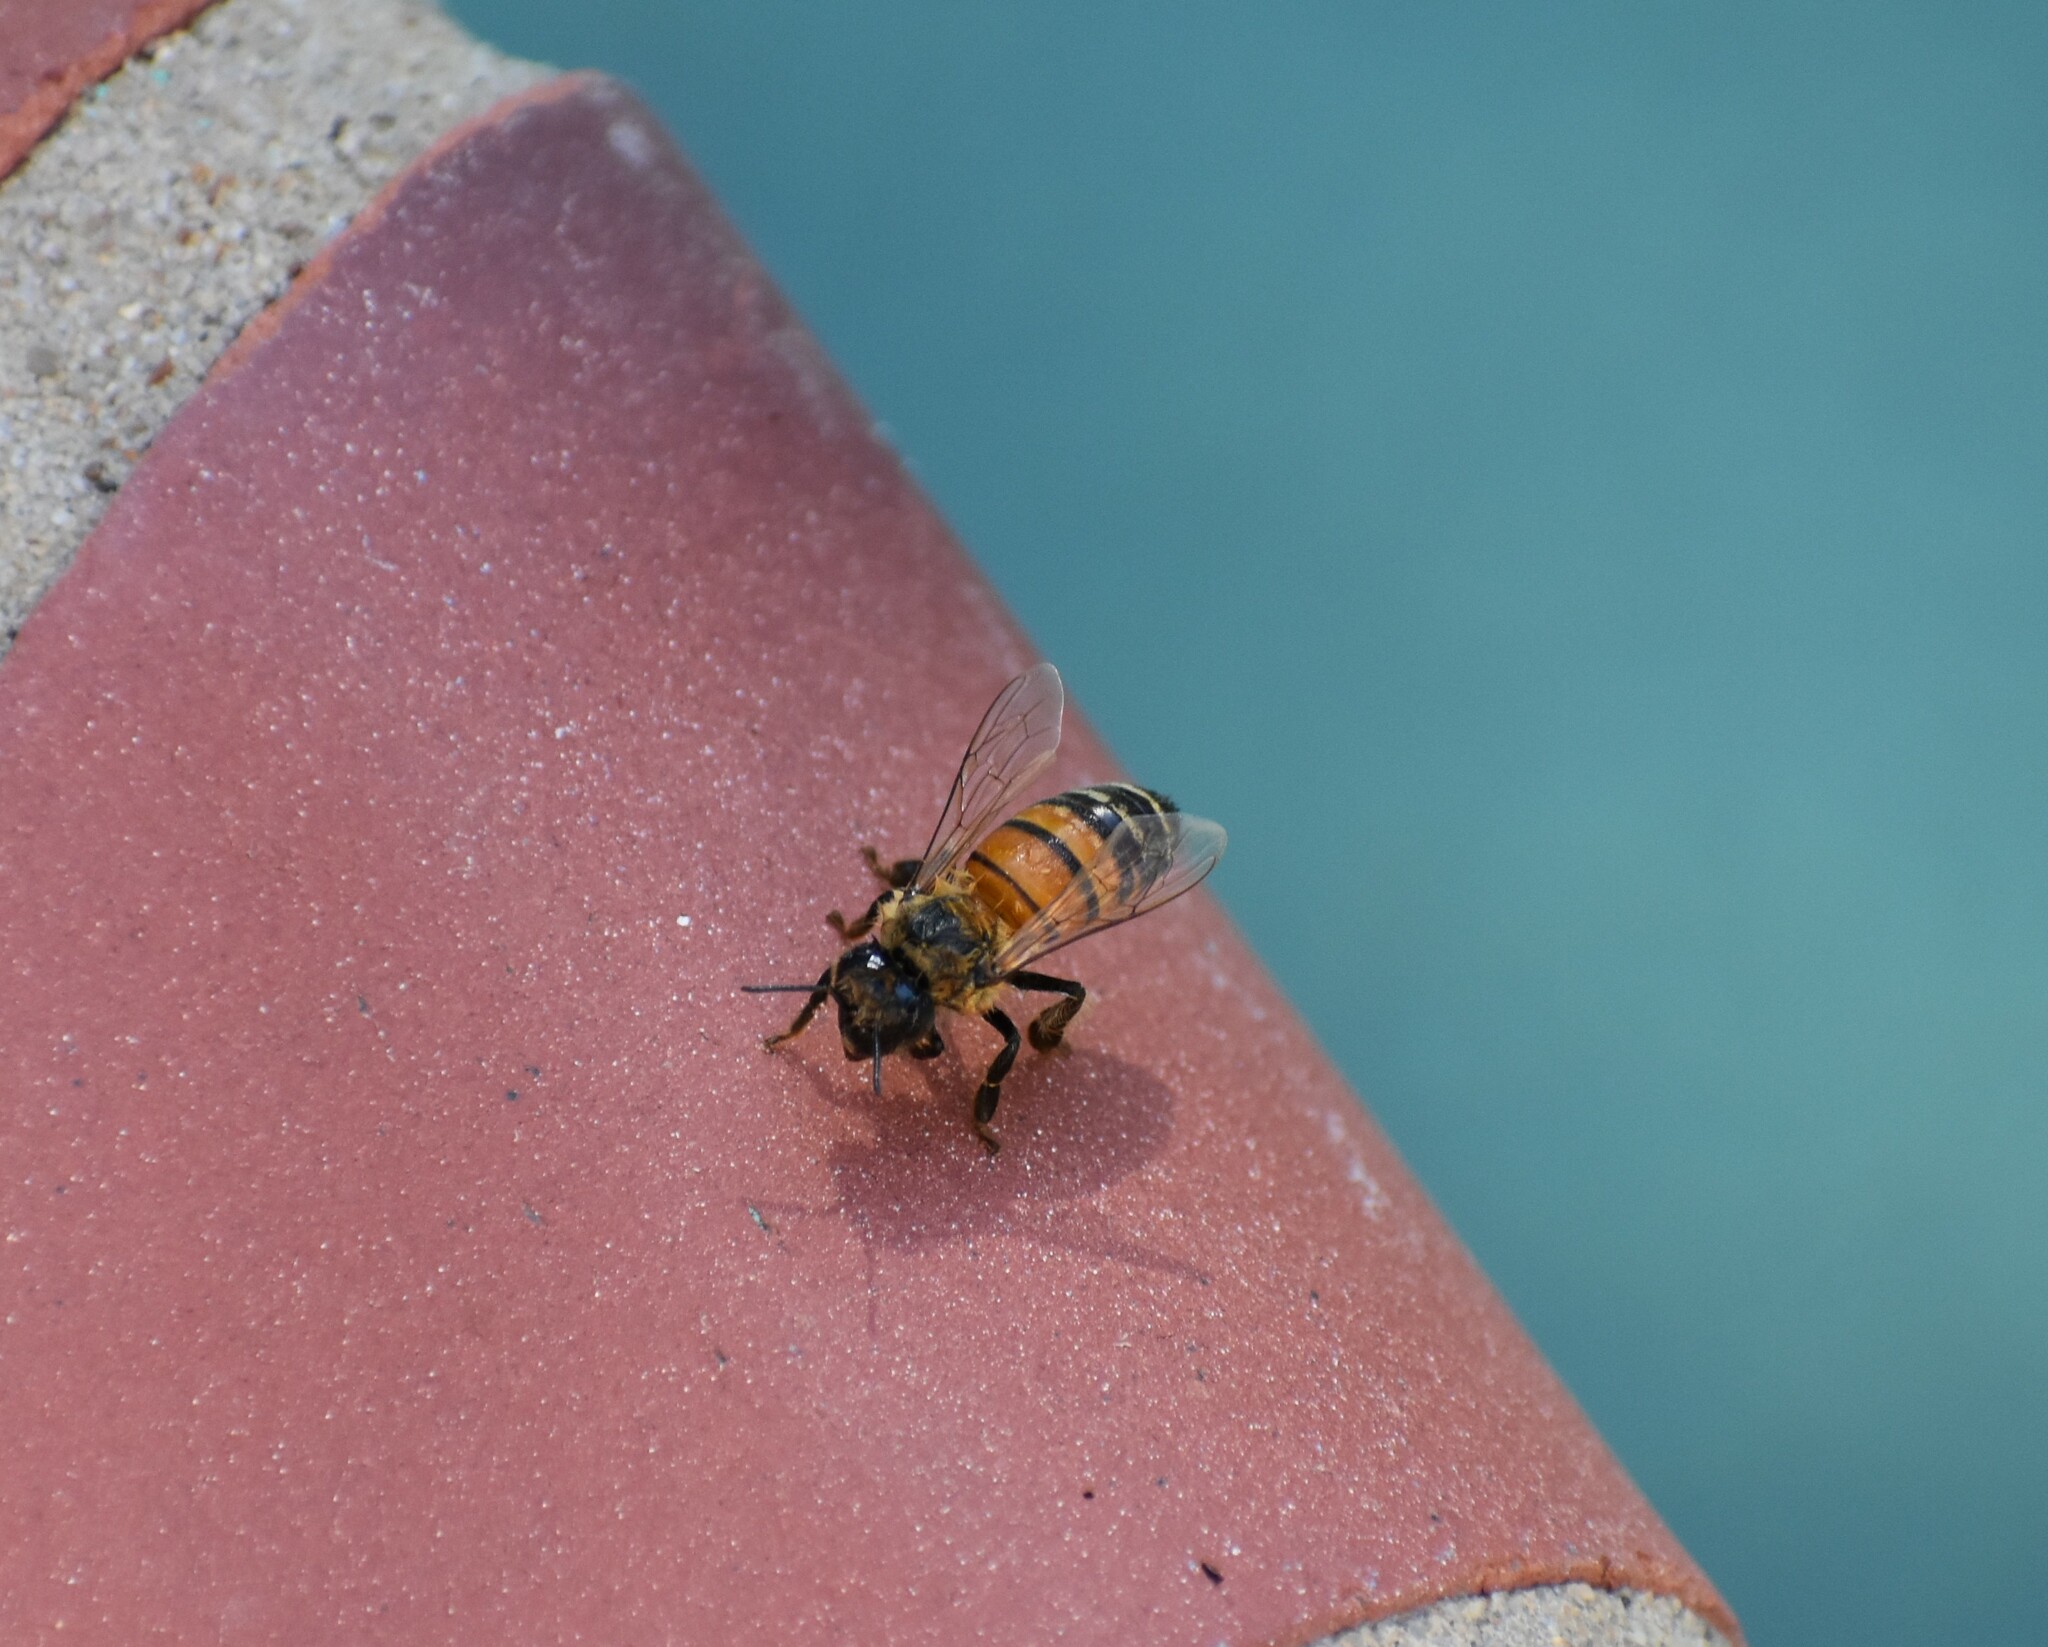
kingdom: Animalia
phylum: Arthropoda
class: Insecta
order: Hymenoptera
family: Apidae
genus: Apis
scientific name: Apis mellifera
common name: Honey bee
